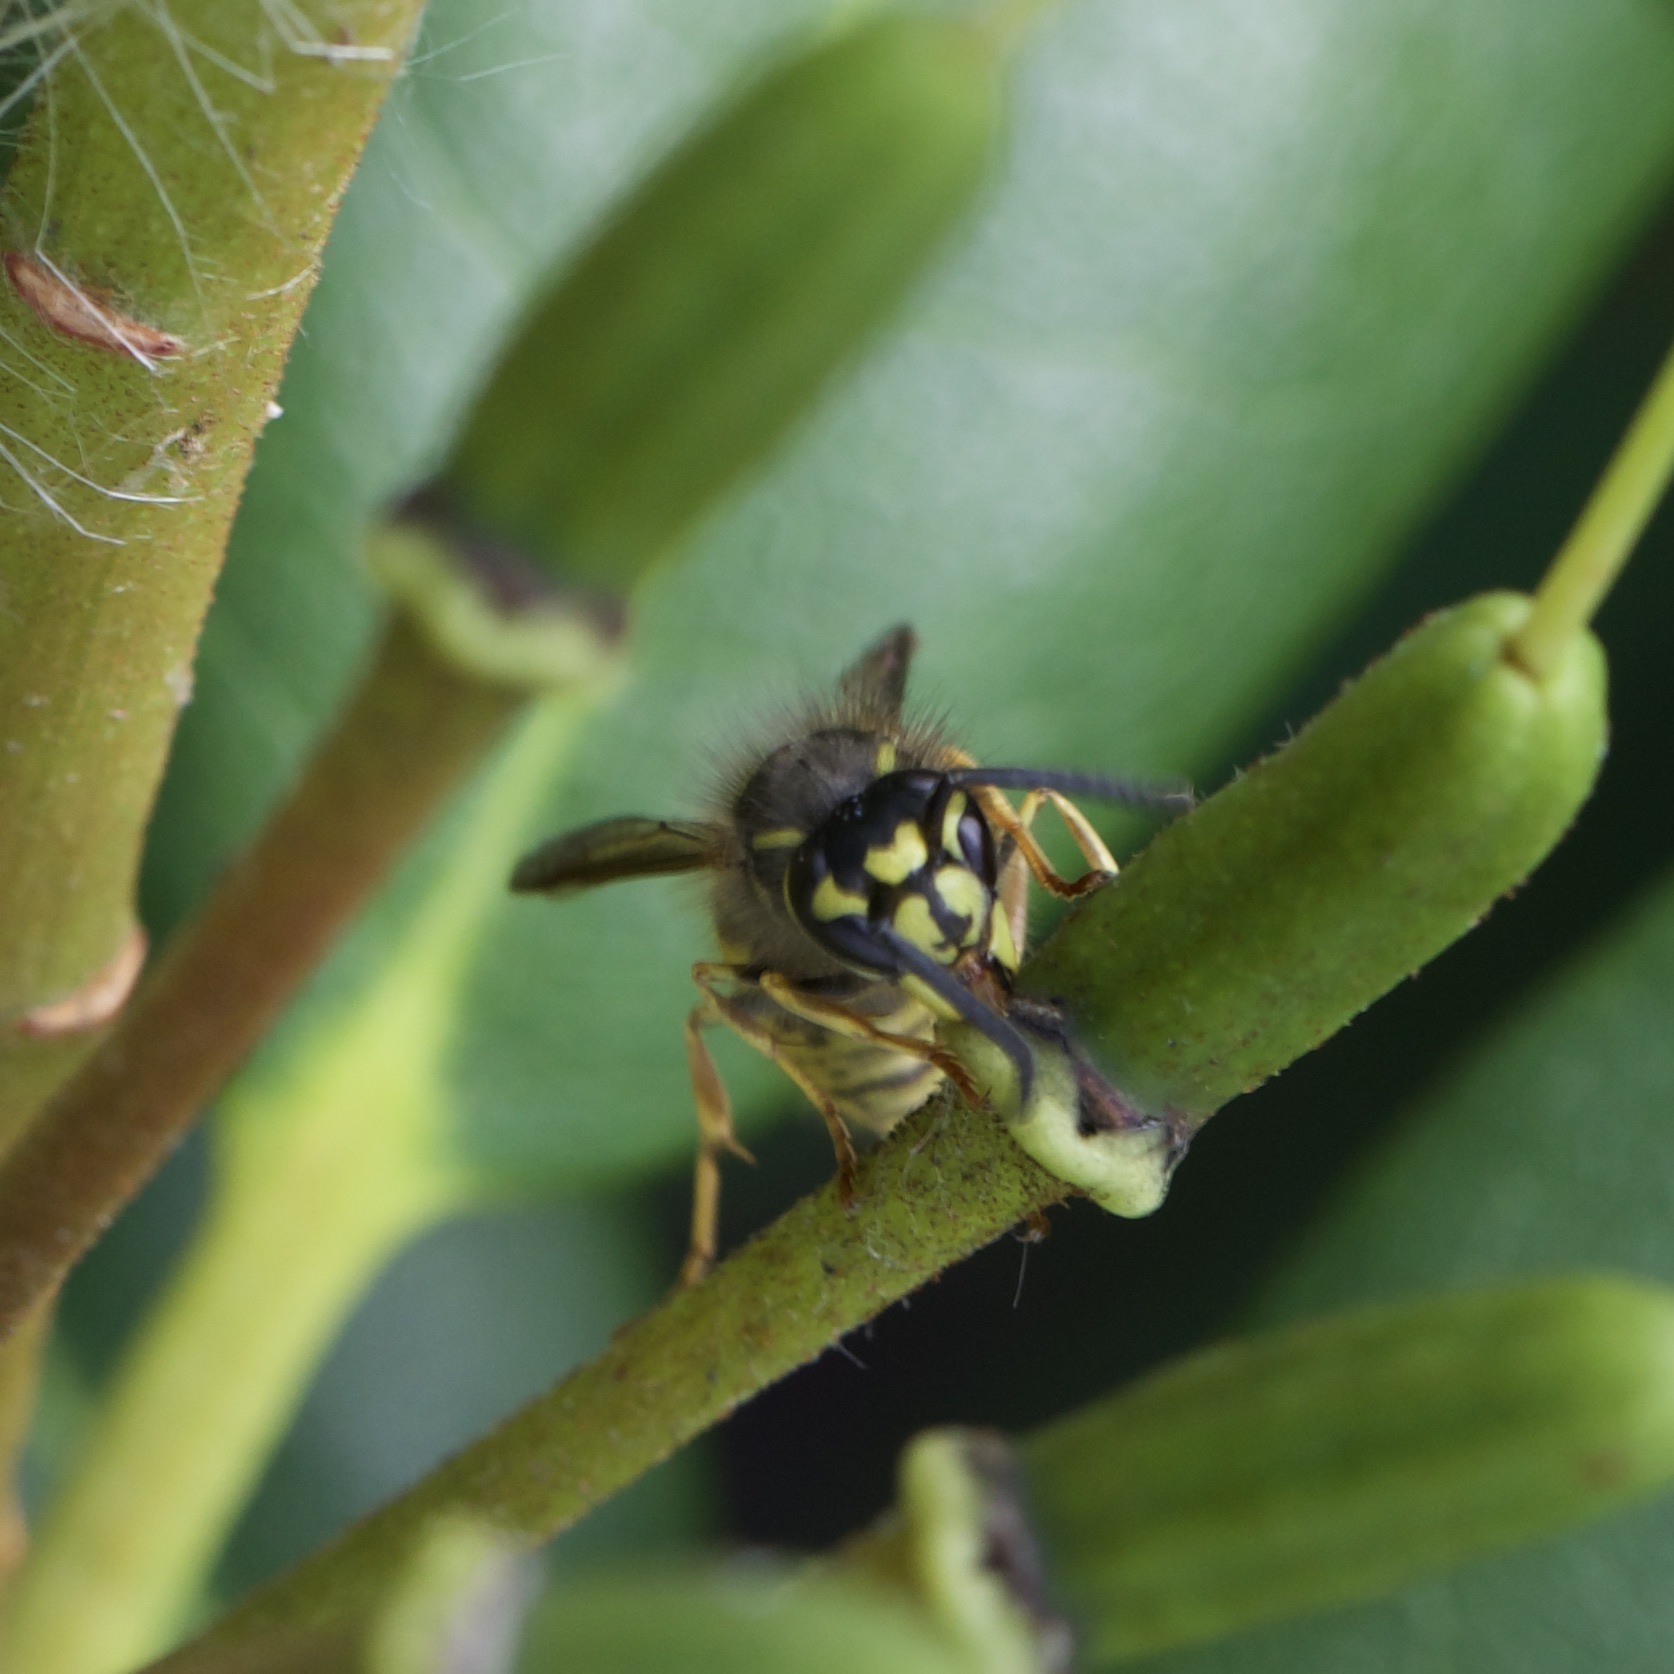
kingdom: Animalia
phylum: Arthropoda
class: Insecta
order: Hymenoptera
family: Vespidae
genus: Vespula
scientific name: Vespula vulgaris
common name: Common wasp
